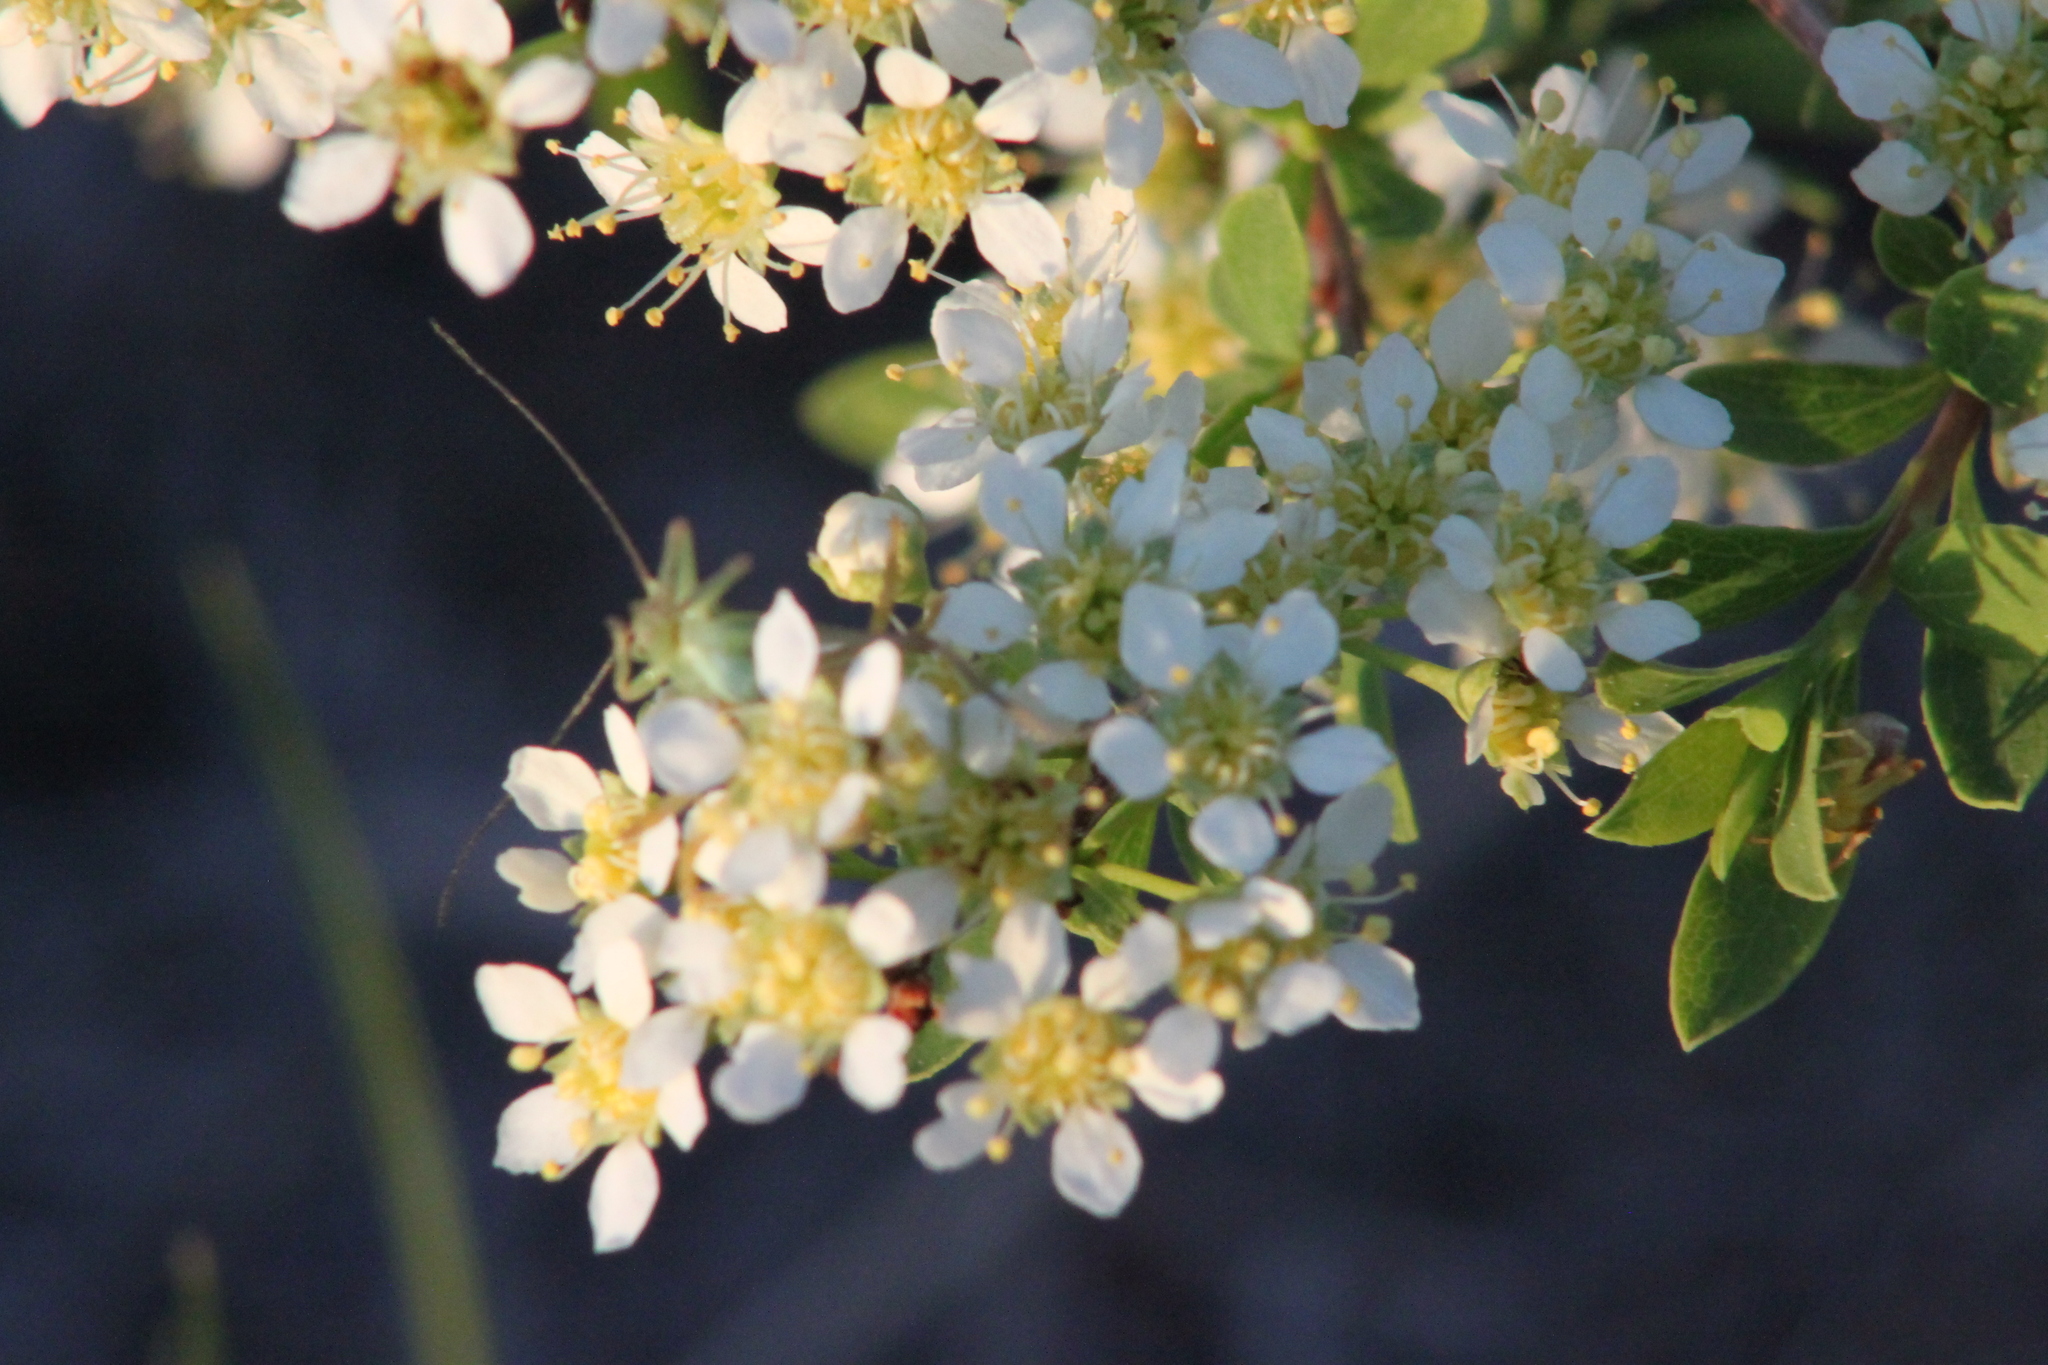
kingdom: Plantae
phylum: Tracheophyta
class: Magnoliopsida
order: Rosales
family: Rosaceae
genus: Spiraea
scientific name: Spiraea hypericifolia
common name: Iberian spirea
